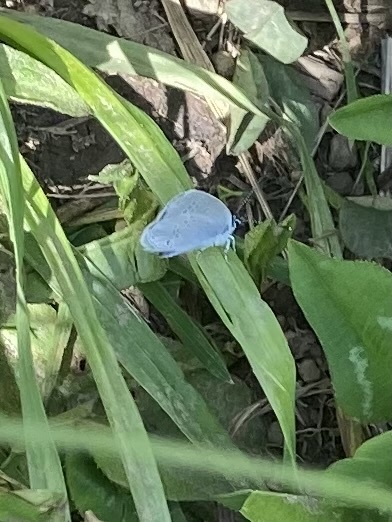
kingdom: Animalia
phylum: Arthropoda
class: Insecta
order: Lepidoptera
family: Lycaenidae
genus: Celastrina
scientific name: Celastrina argiolus
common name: Holly blue
